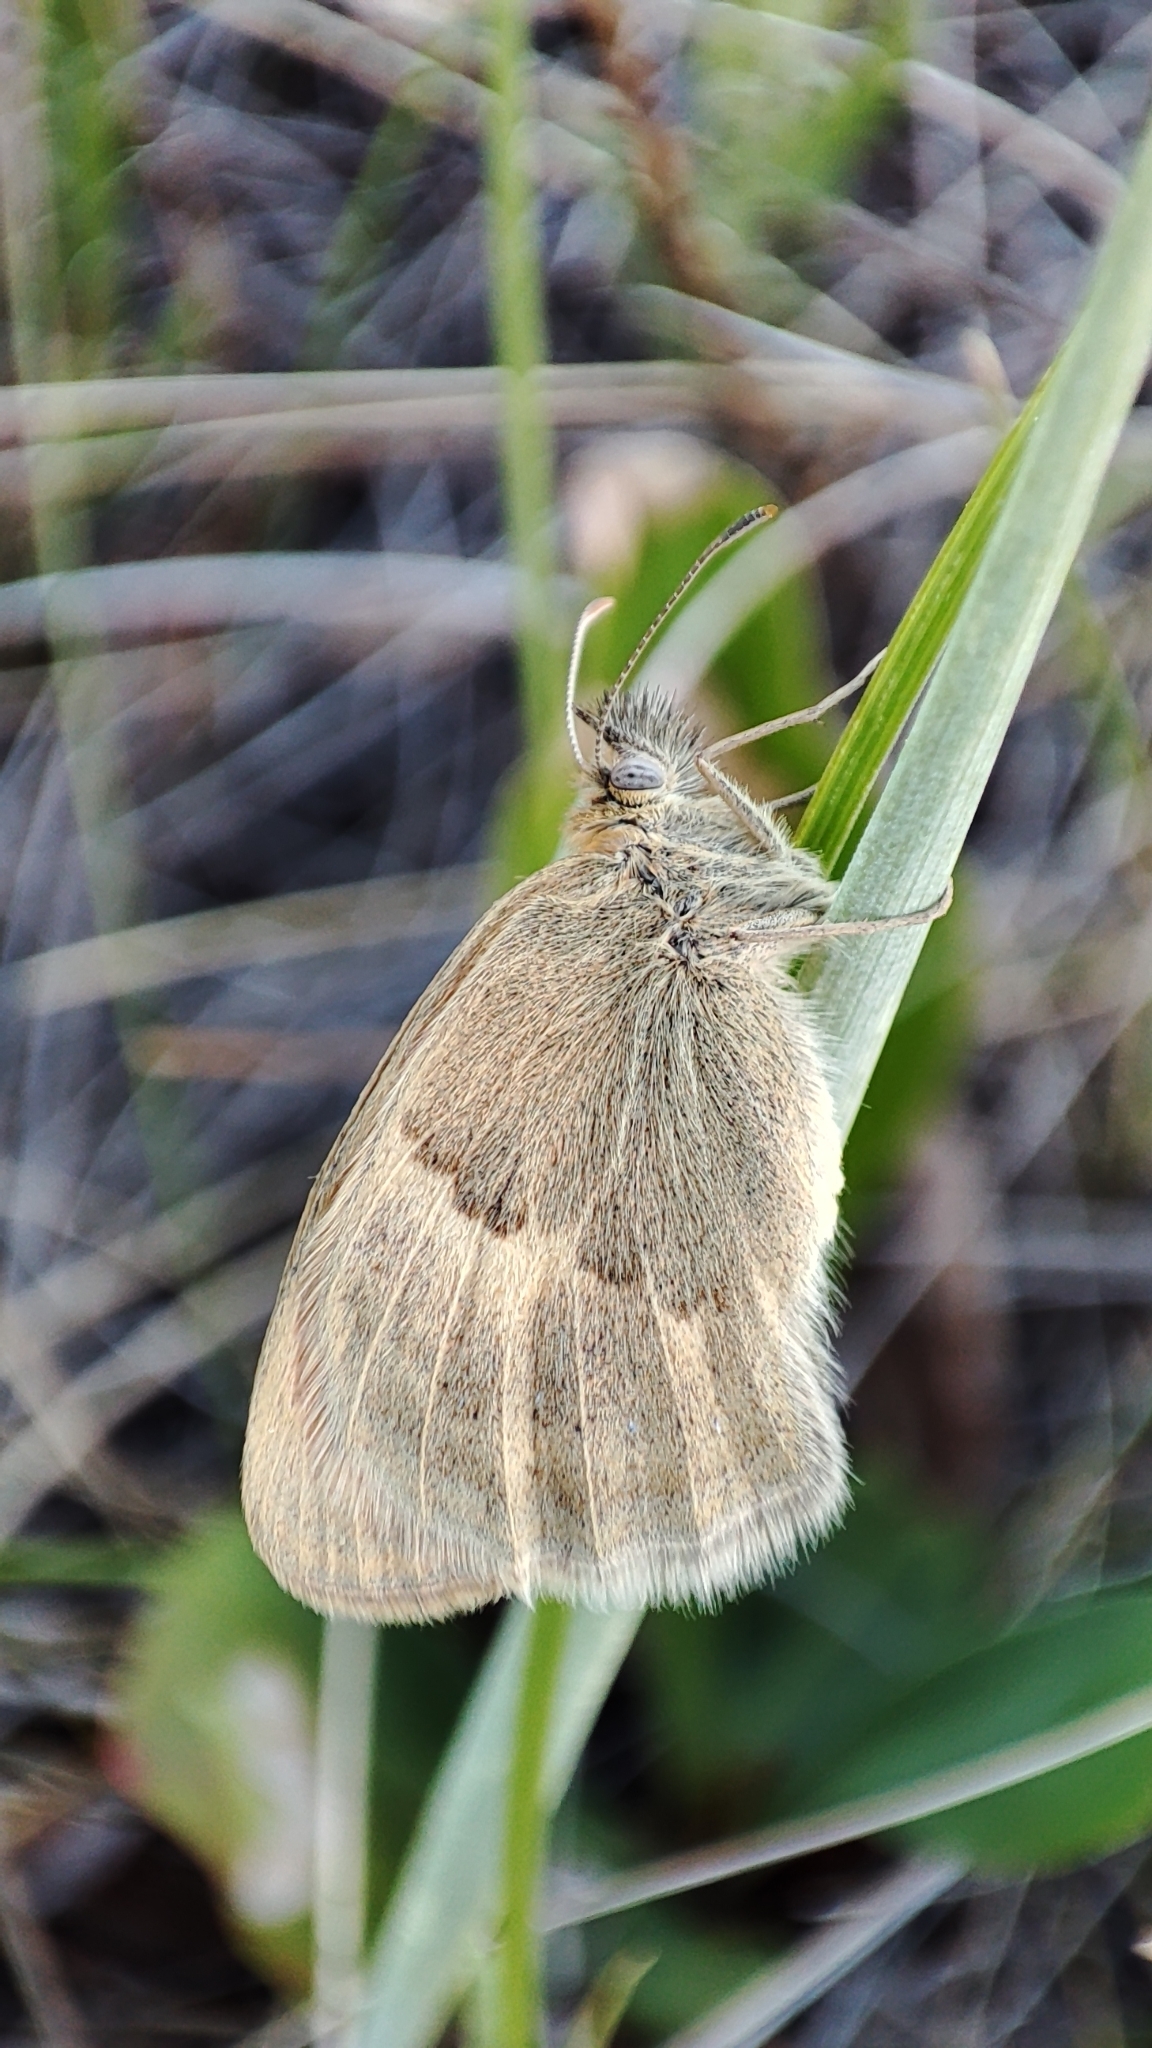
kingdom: Animalia
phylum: Arthropoda
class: Insecta
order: Lepidoptera
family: Nymphalidae
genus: Coenonympha
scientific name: Coenonympha pamphilus
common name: Small heath
